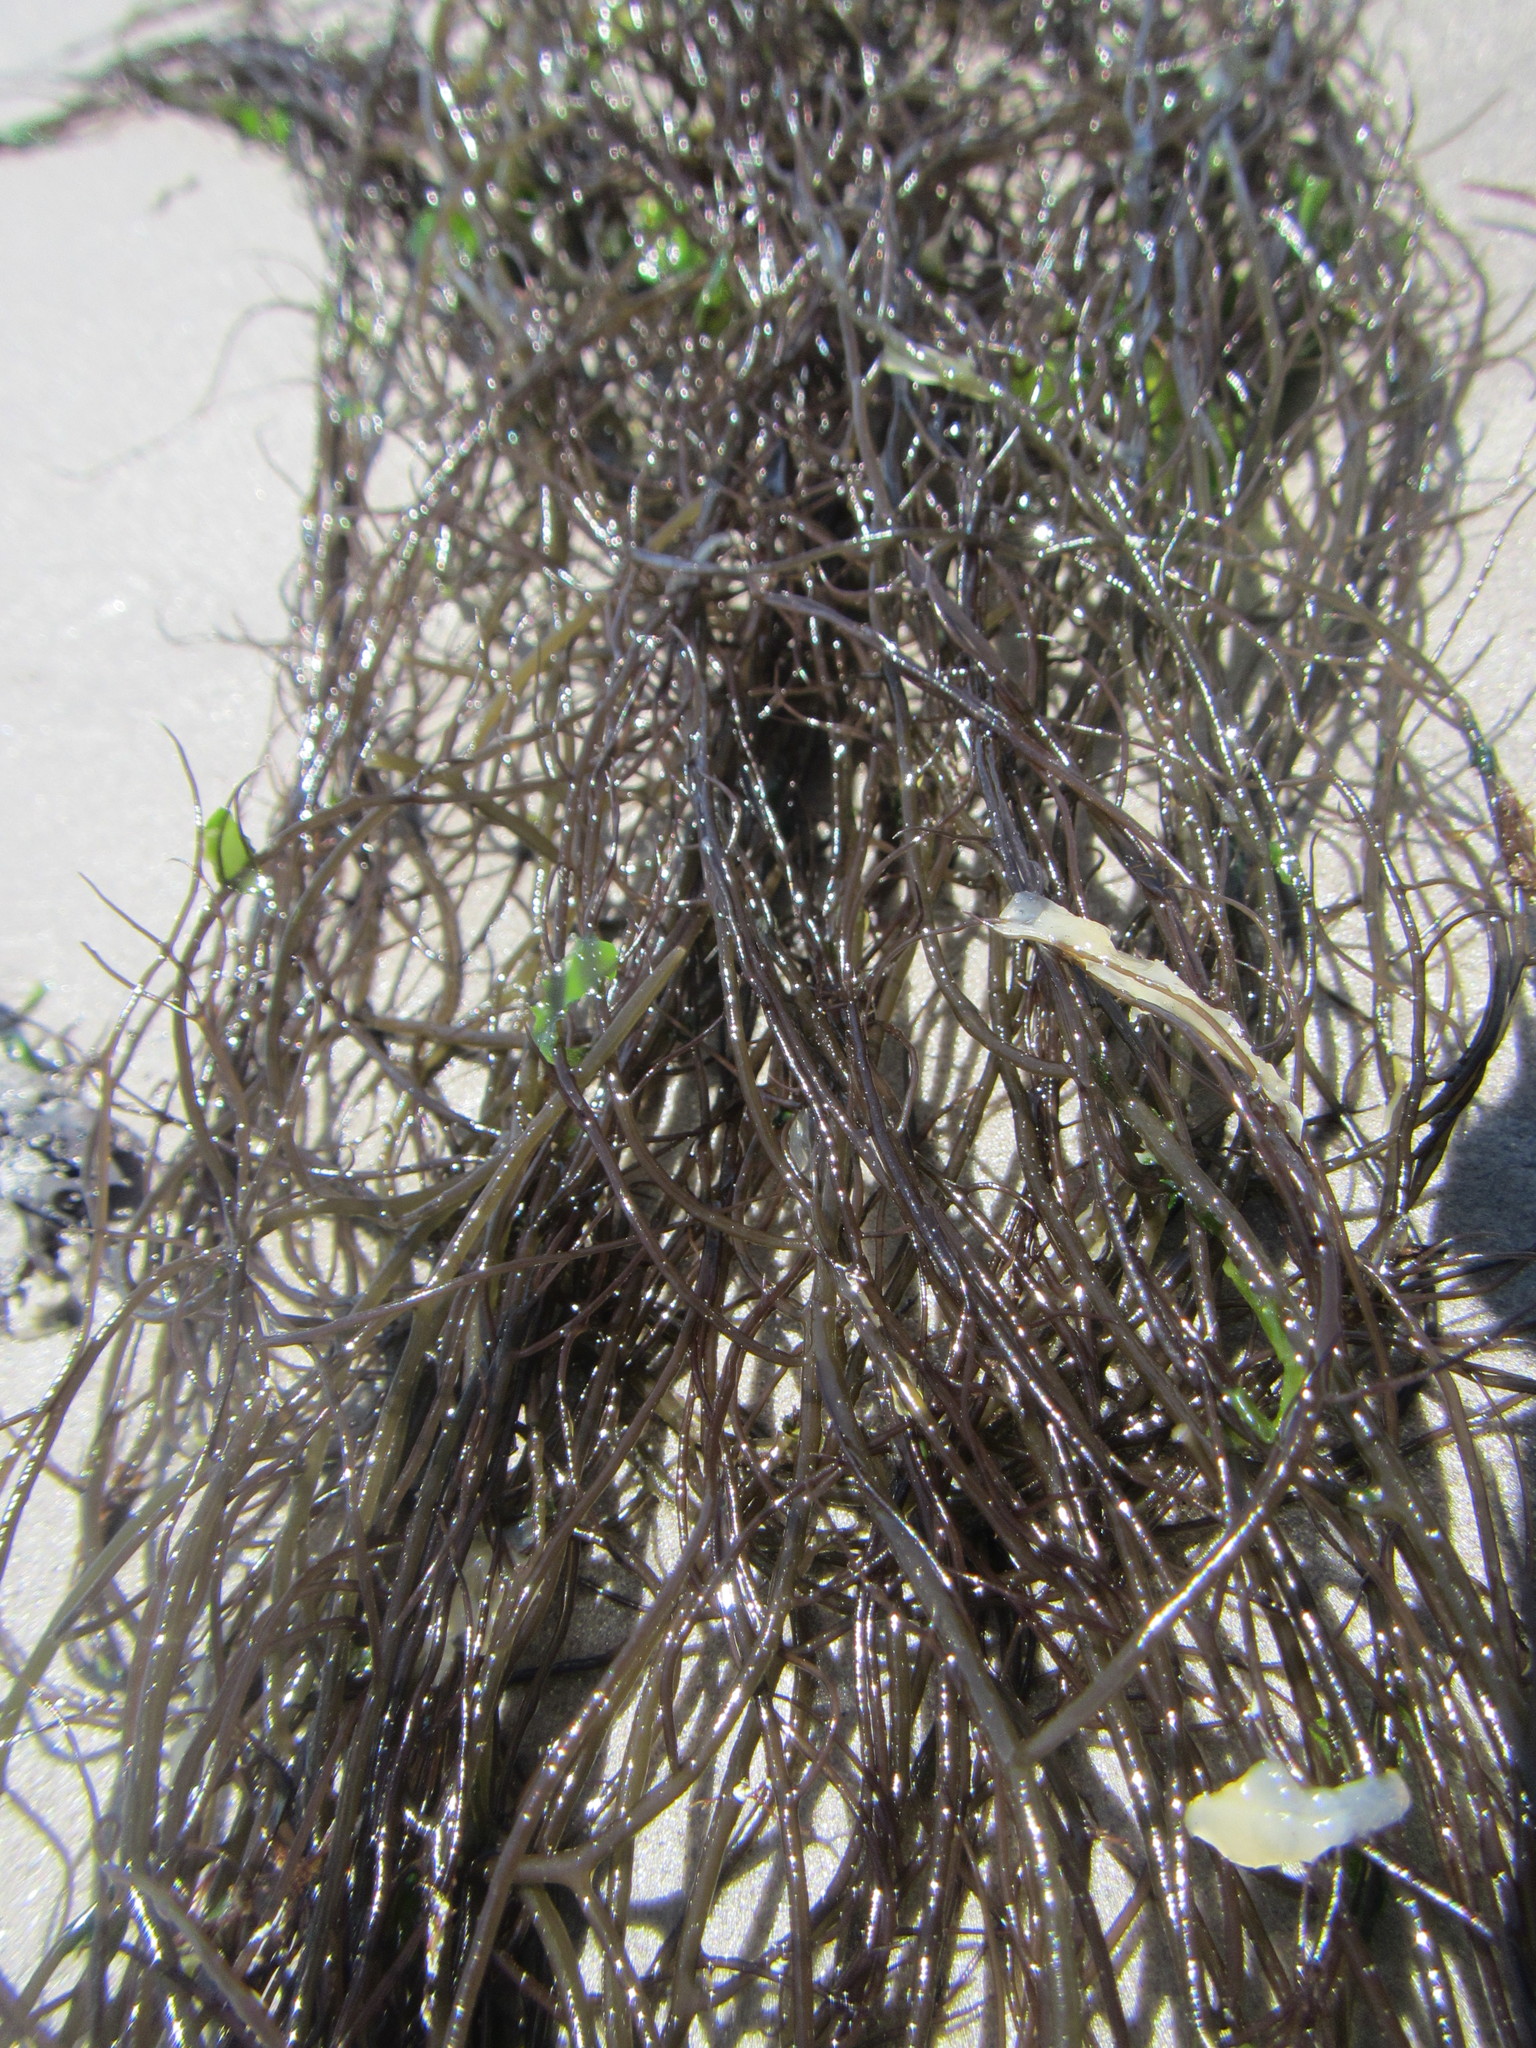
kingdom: Plantae
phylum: Rhodophyta
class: Florideophyceae
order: Gracilariales
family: Gracilariaceae
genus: Gracilaria
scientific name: Gracilaria chilensis
